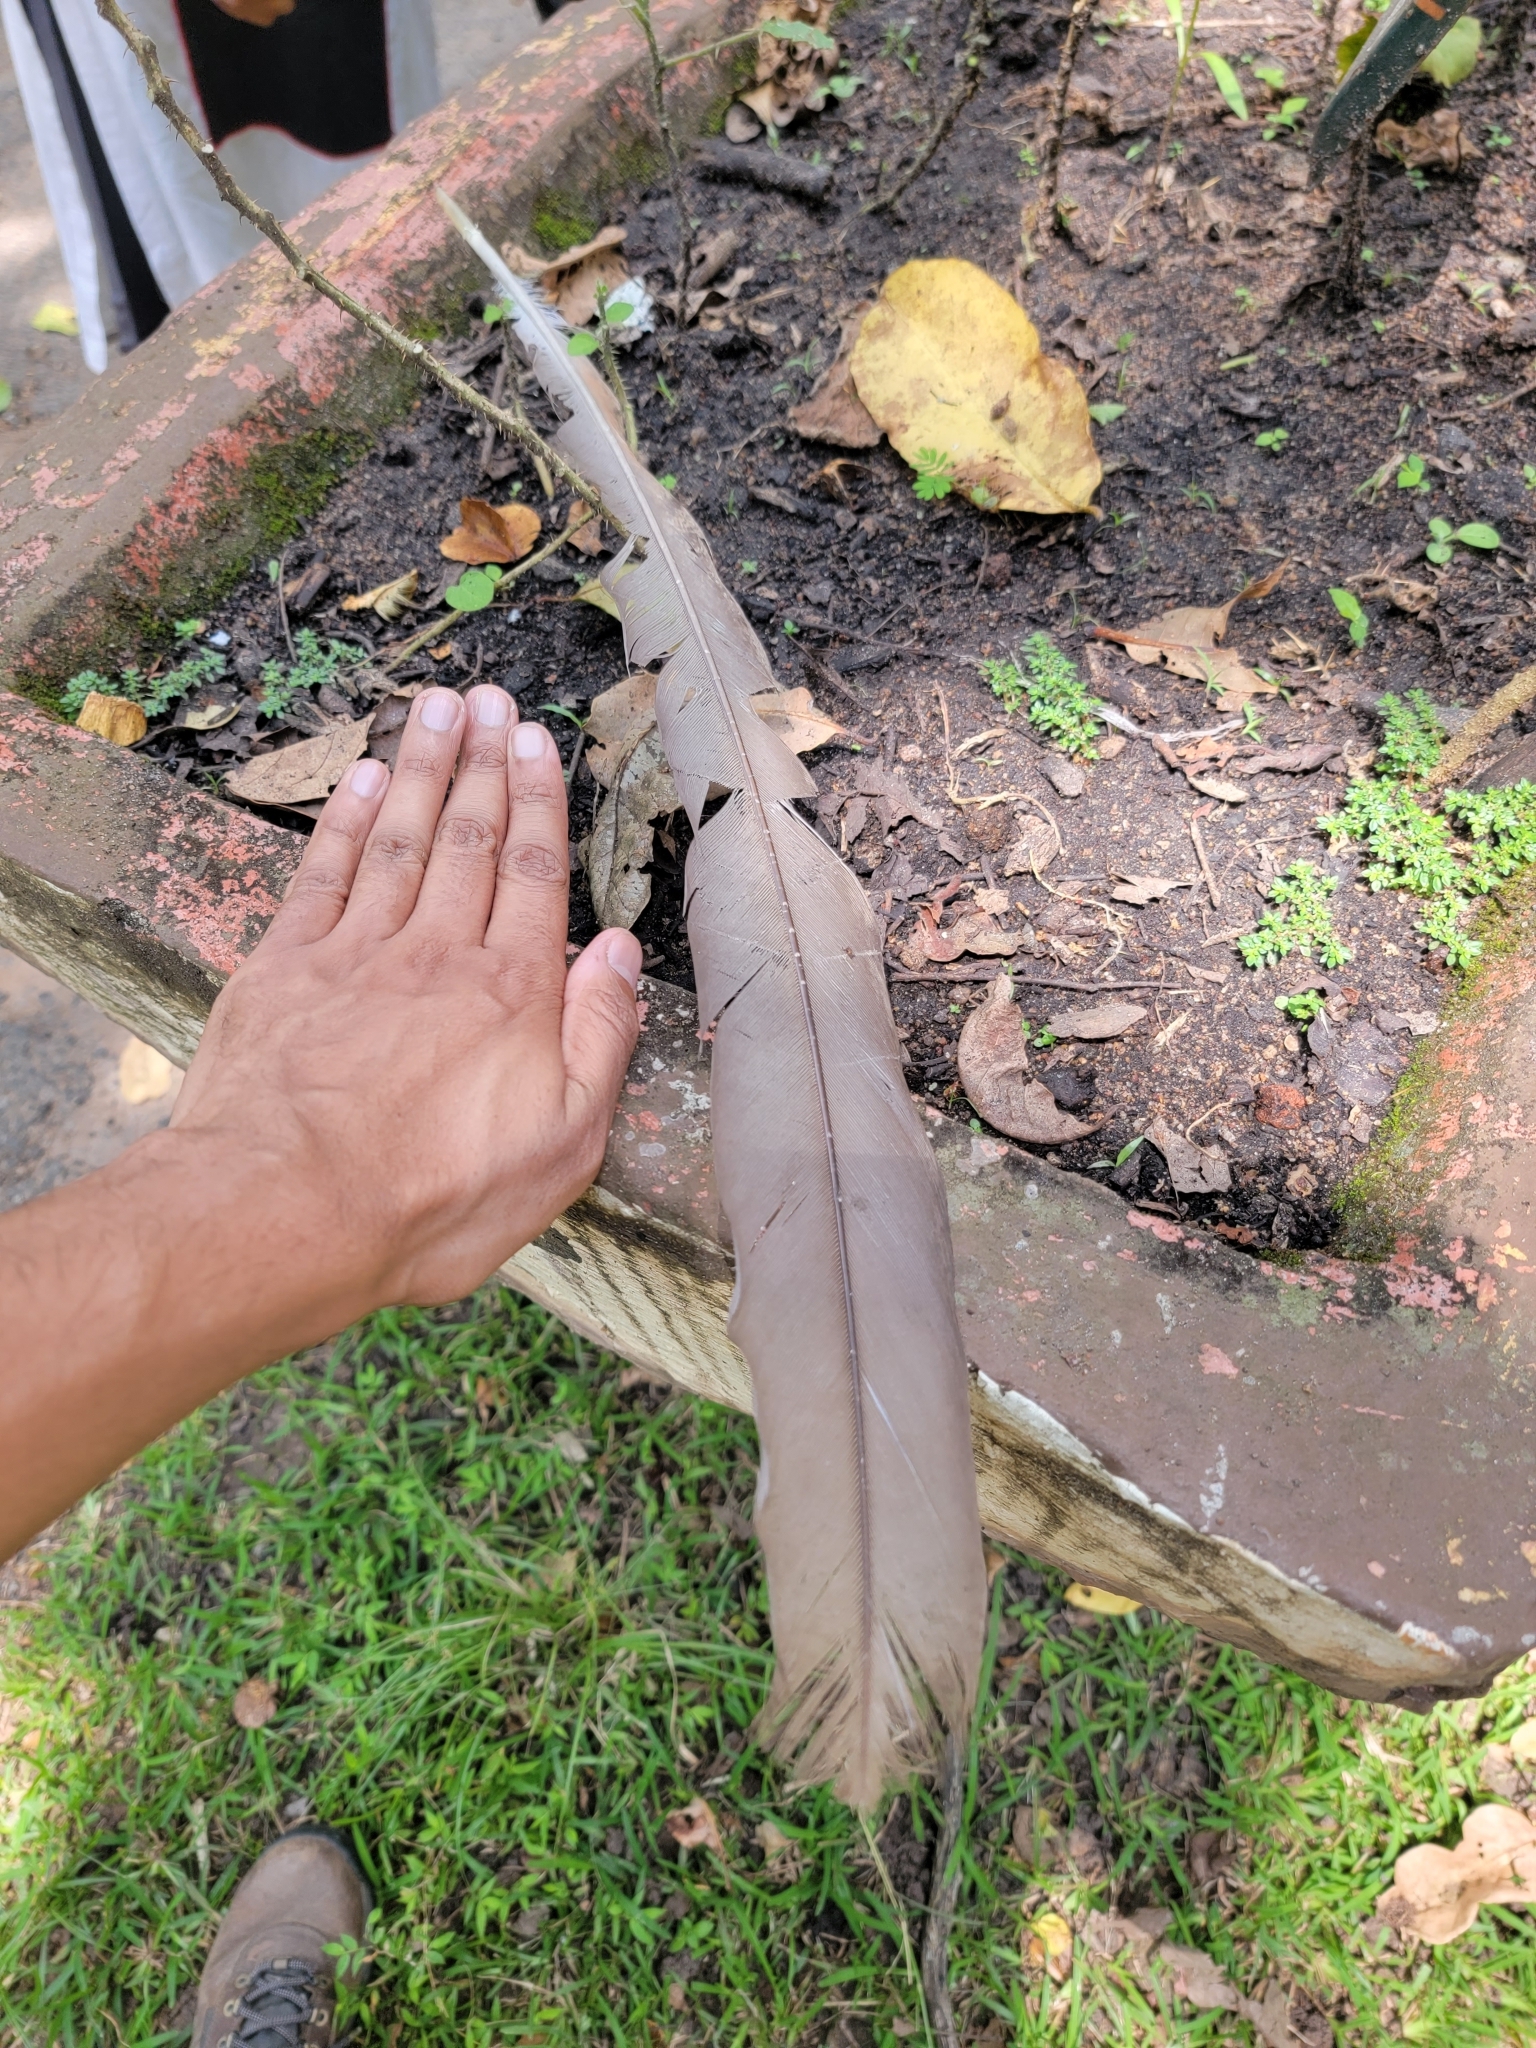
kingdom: Animalia
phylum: Chordata
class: Aves
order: Galliformes
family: Phasianidae
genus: Pavo
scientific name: Pavo cristatus
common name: Indian peafowl
